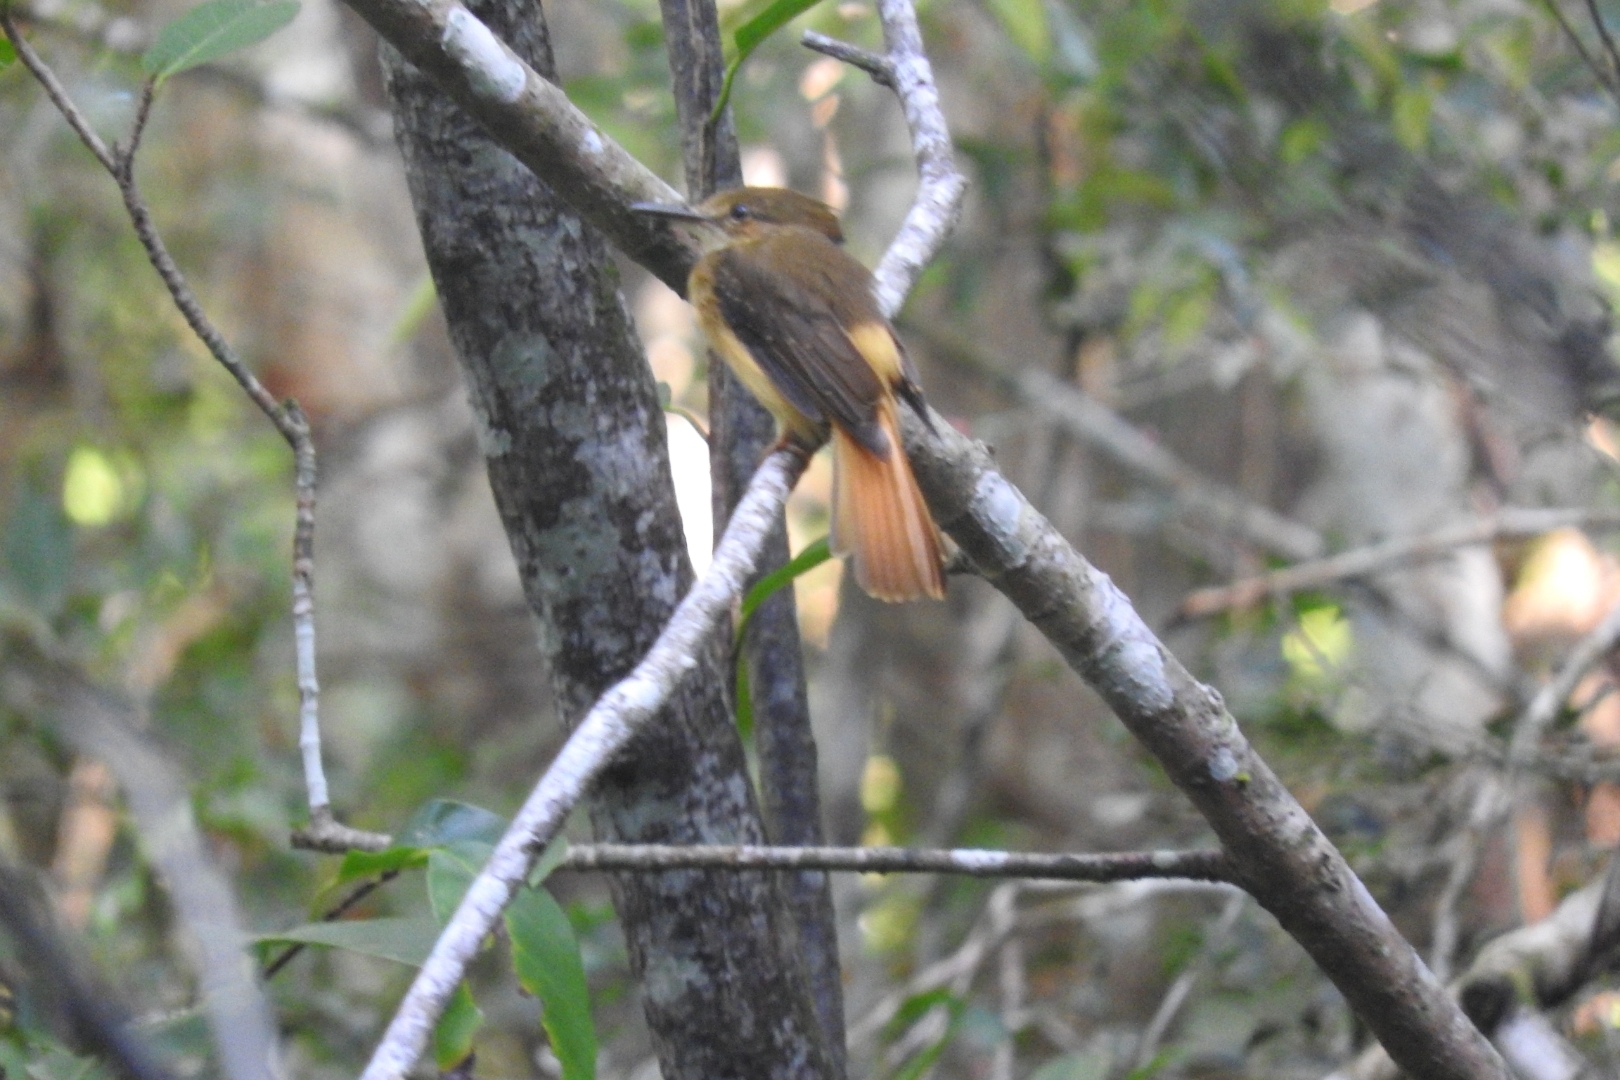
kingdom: Animalia
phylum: Chordata
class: Aves
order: Passeriformes
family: Tyrannidae
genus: Onychorhynchus
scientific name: Onychorhynchus coronatus
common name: Royal flycatcher
